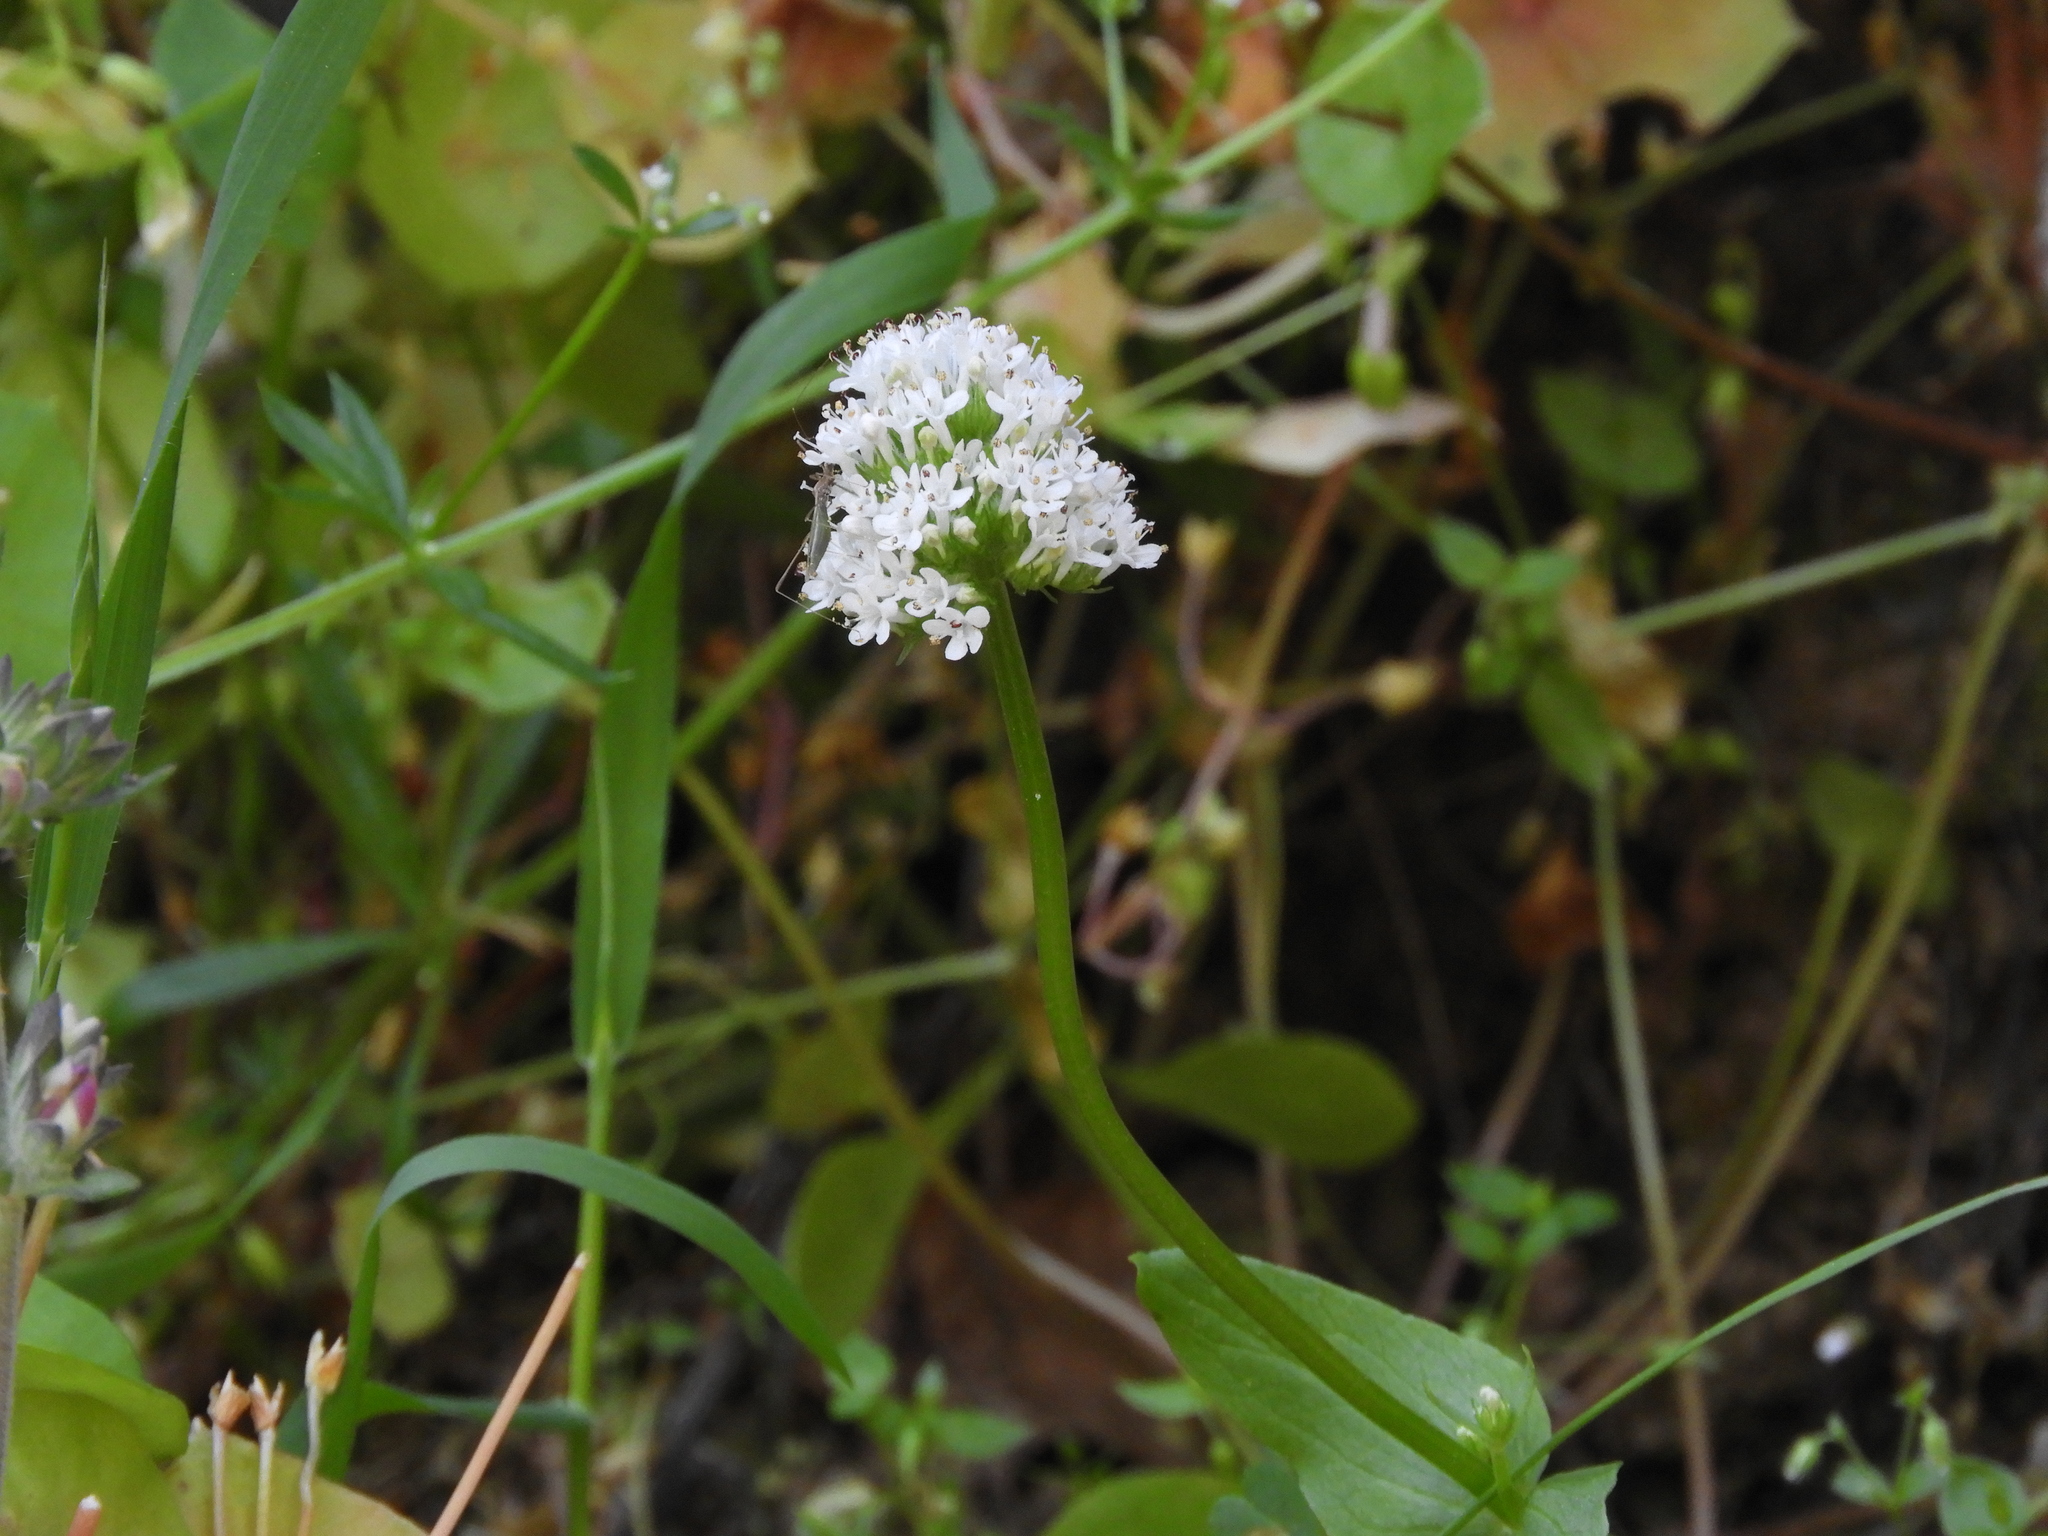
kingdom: Plantae
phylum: Tracheophyta
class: Magnoliopsida
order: Dipsacales
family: Caprifoliaceae
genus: Plectritis
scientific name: Plectritis macroptera
